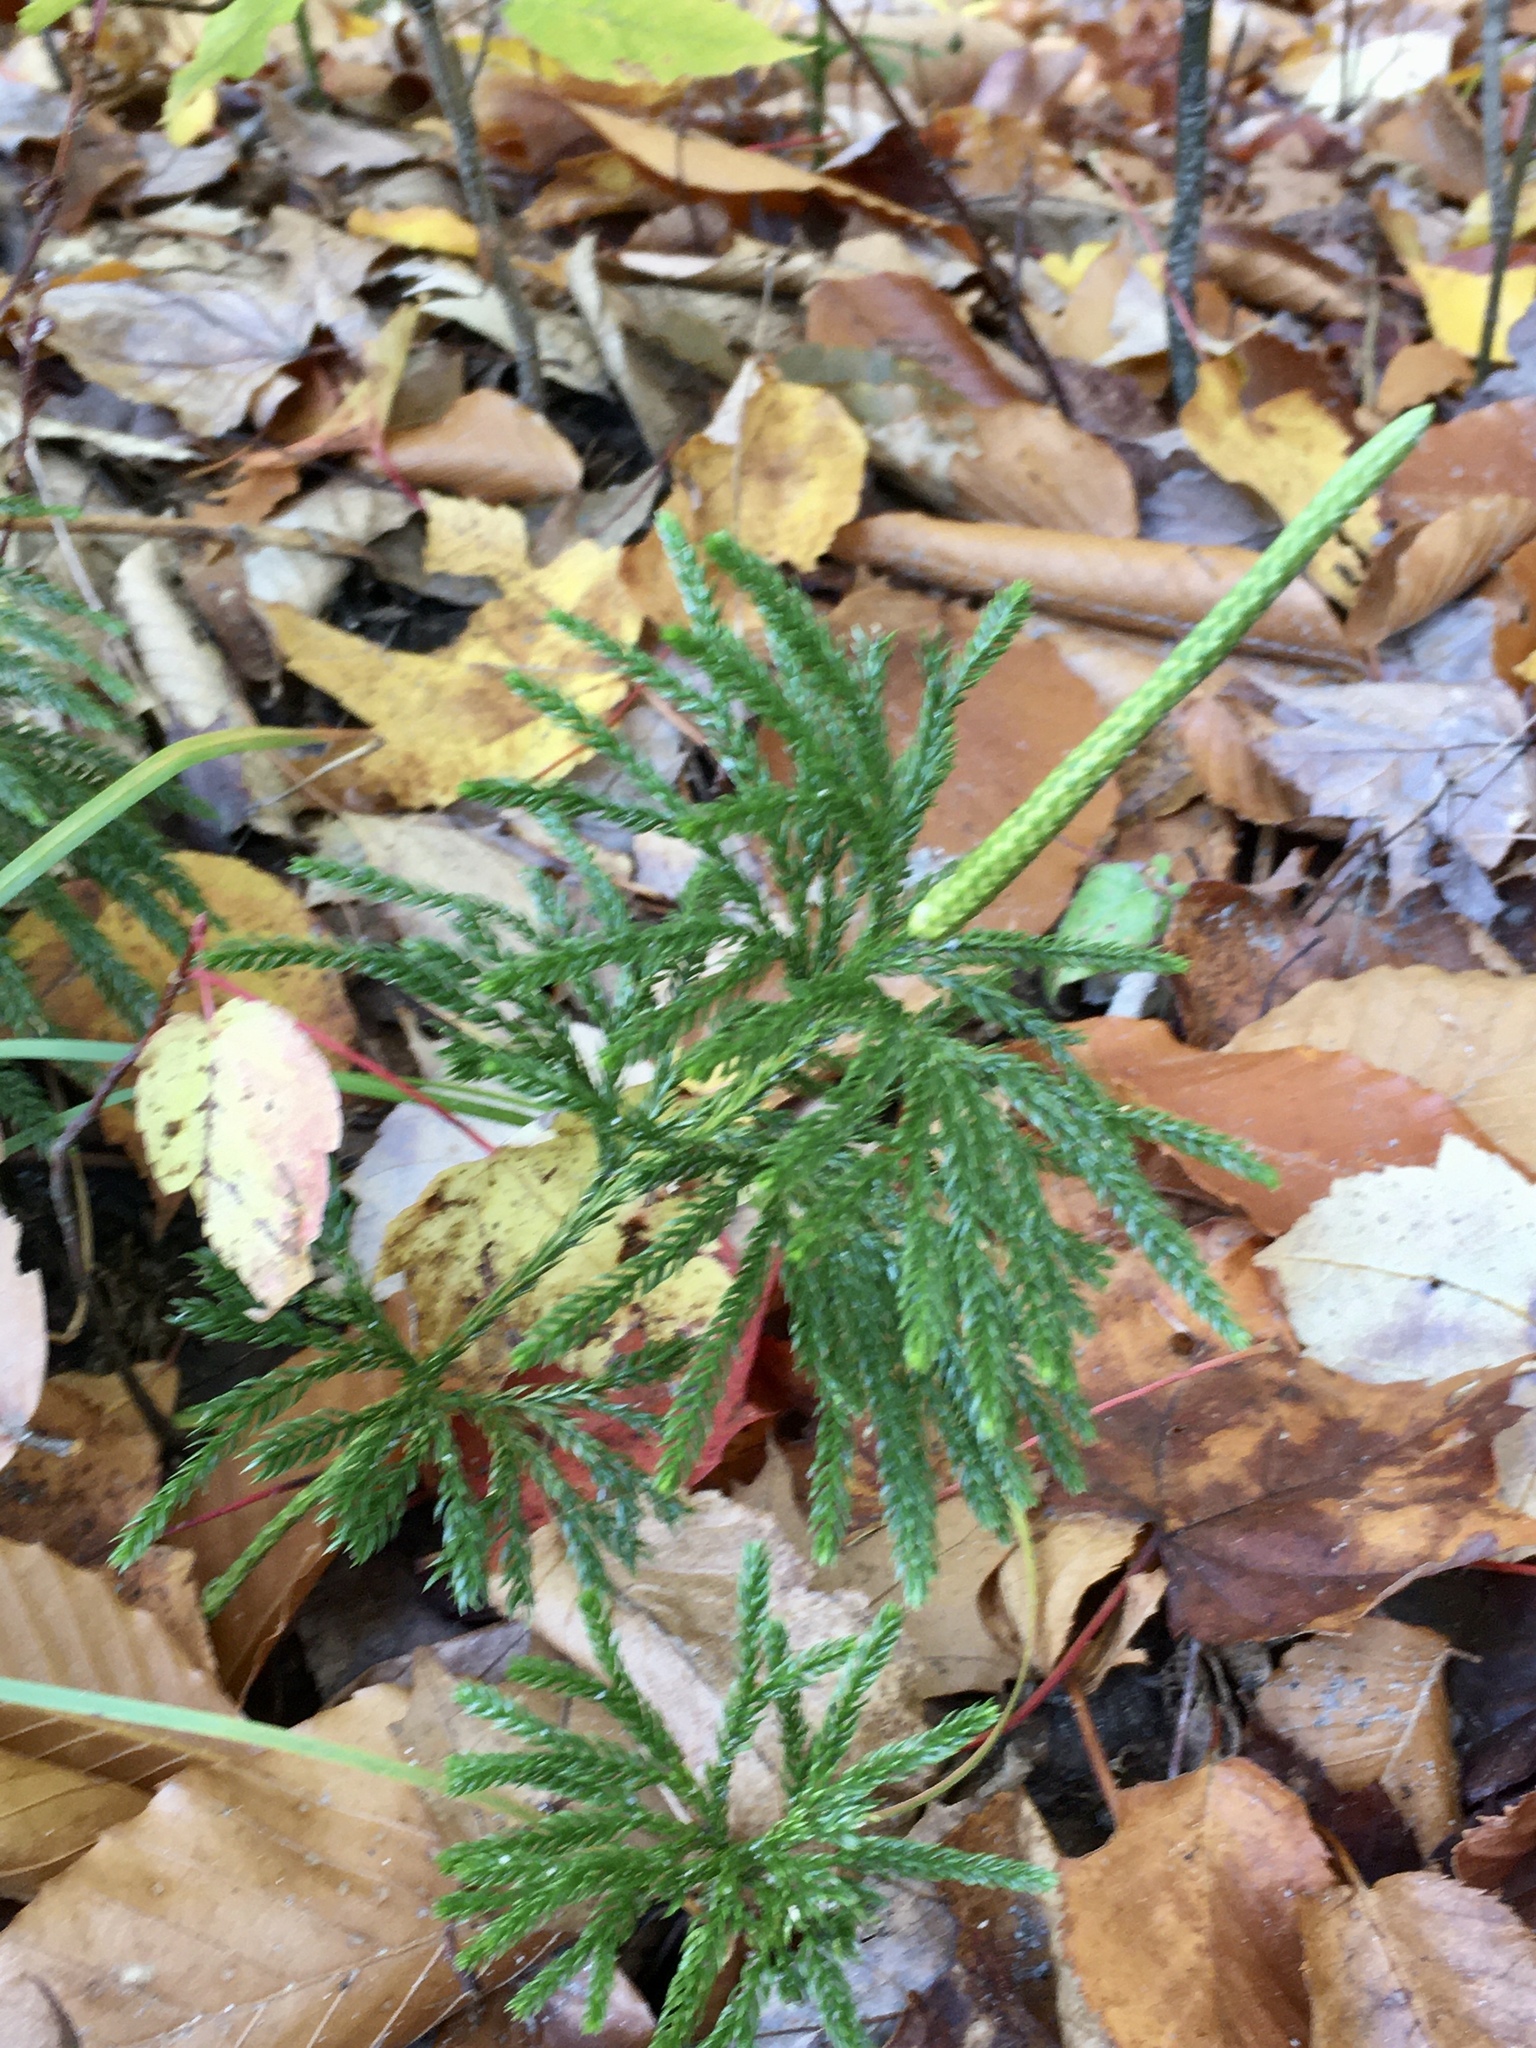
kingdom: Plantae
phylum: Tracheophyta
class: Lycopodiopsida
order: Lycopodiales
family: Lycopodiaceae
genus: Dendrolycopodium
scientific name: Dendrolycopodium hickeyi
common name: Hickey's clubmoss
